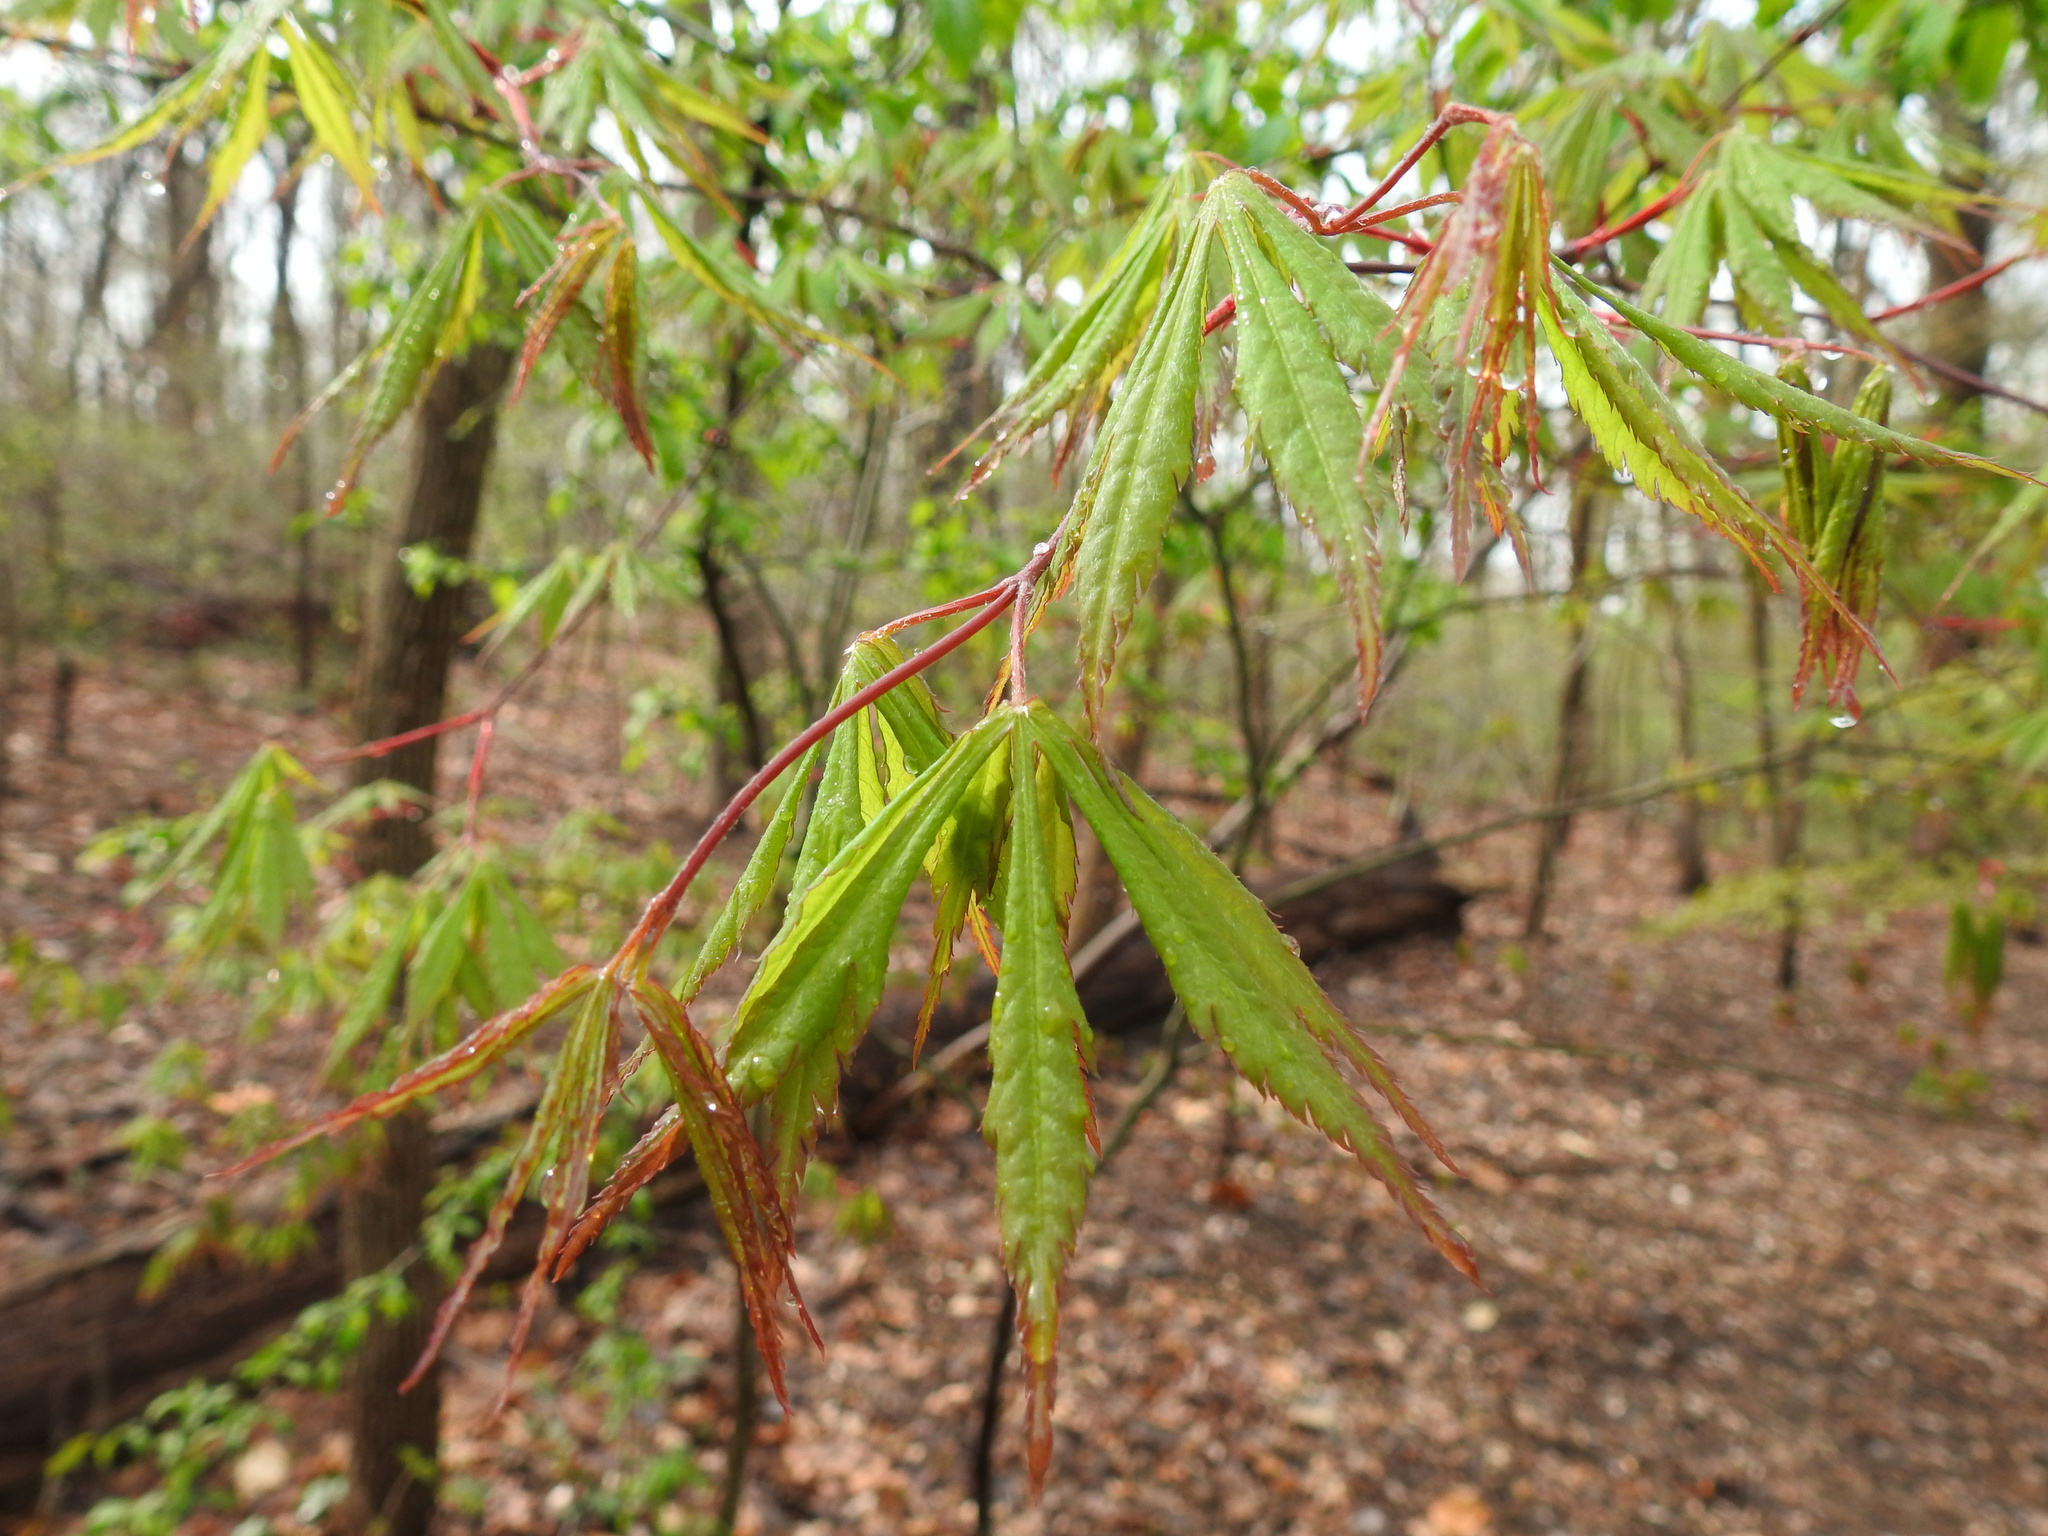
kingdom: Plantae
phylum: Tracheophyta
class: Magnoliopsida
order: Sapindales
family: Sapindaceae
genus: Acer
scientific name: Acer palmatum
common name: Japanese maple
